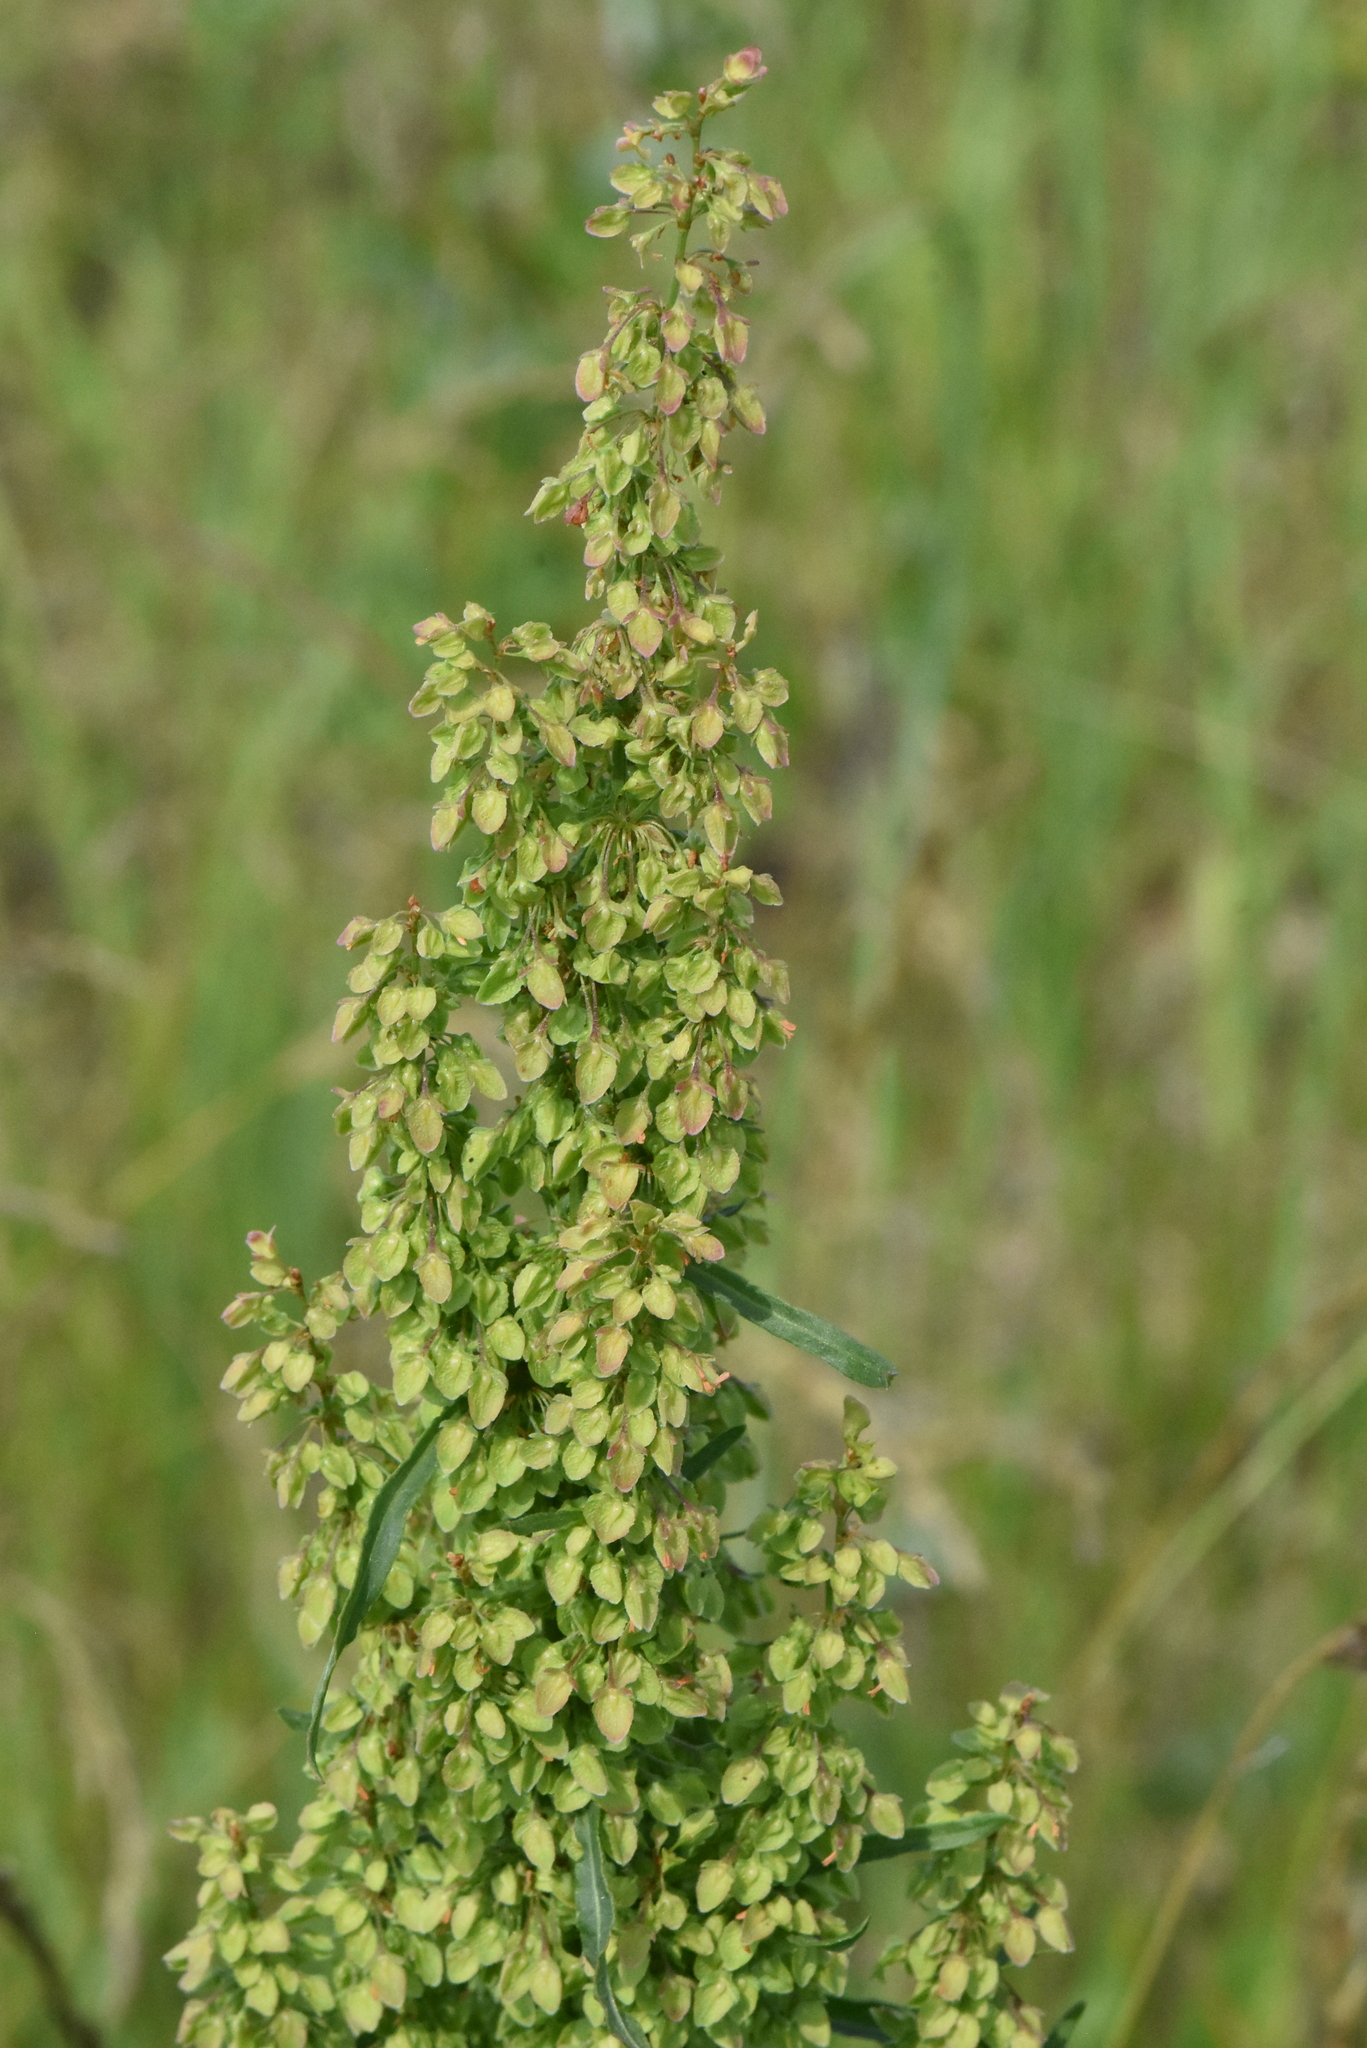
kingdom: Plantae
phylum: Tracheophyta
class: Magnoliopsida
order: Caryophyllales
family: Polygonaceae
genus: Rumex
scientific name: Rumex crispus
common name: Curled dock
